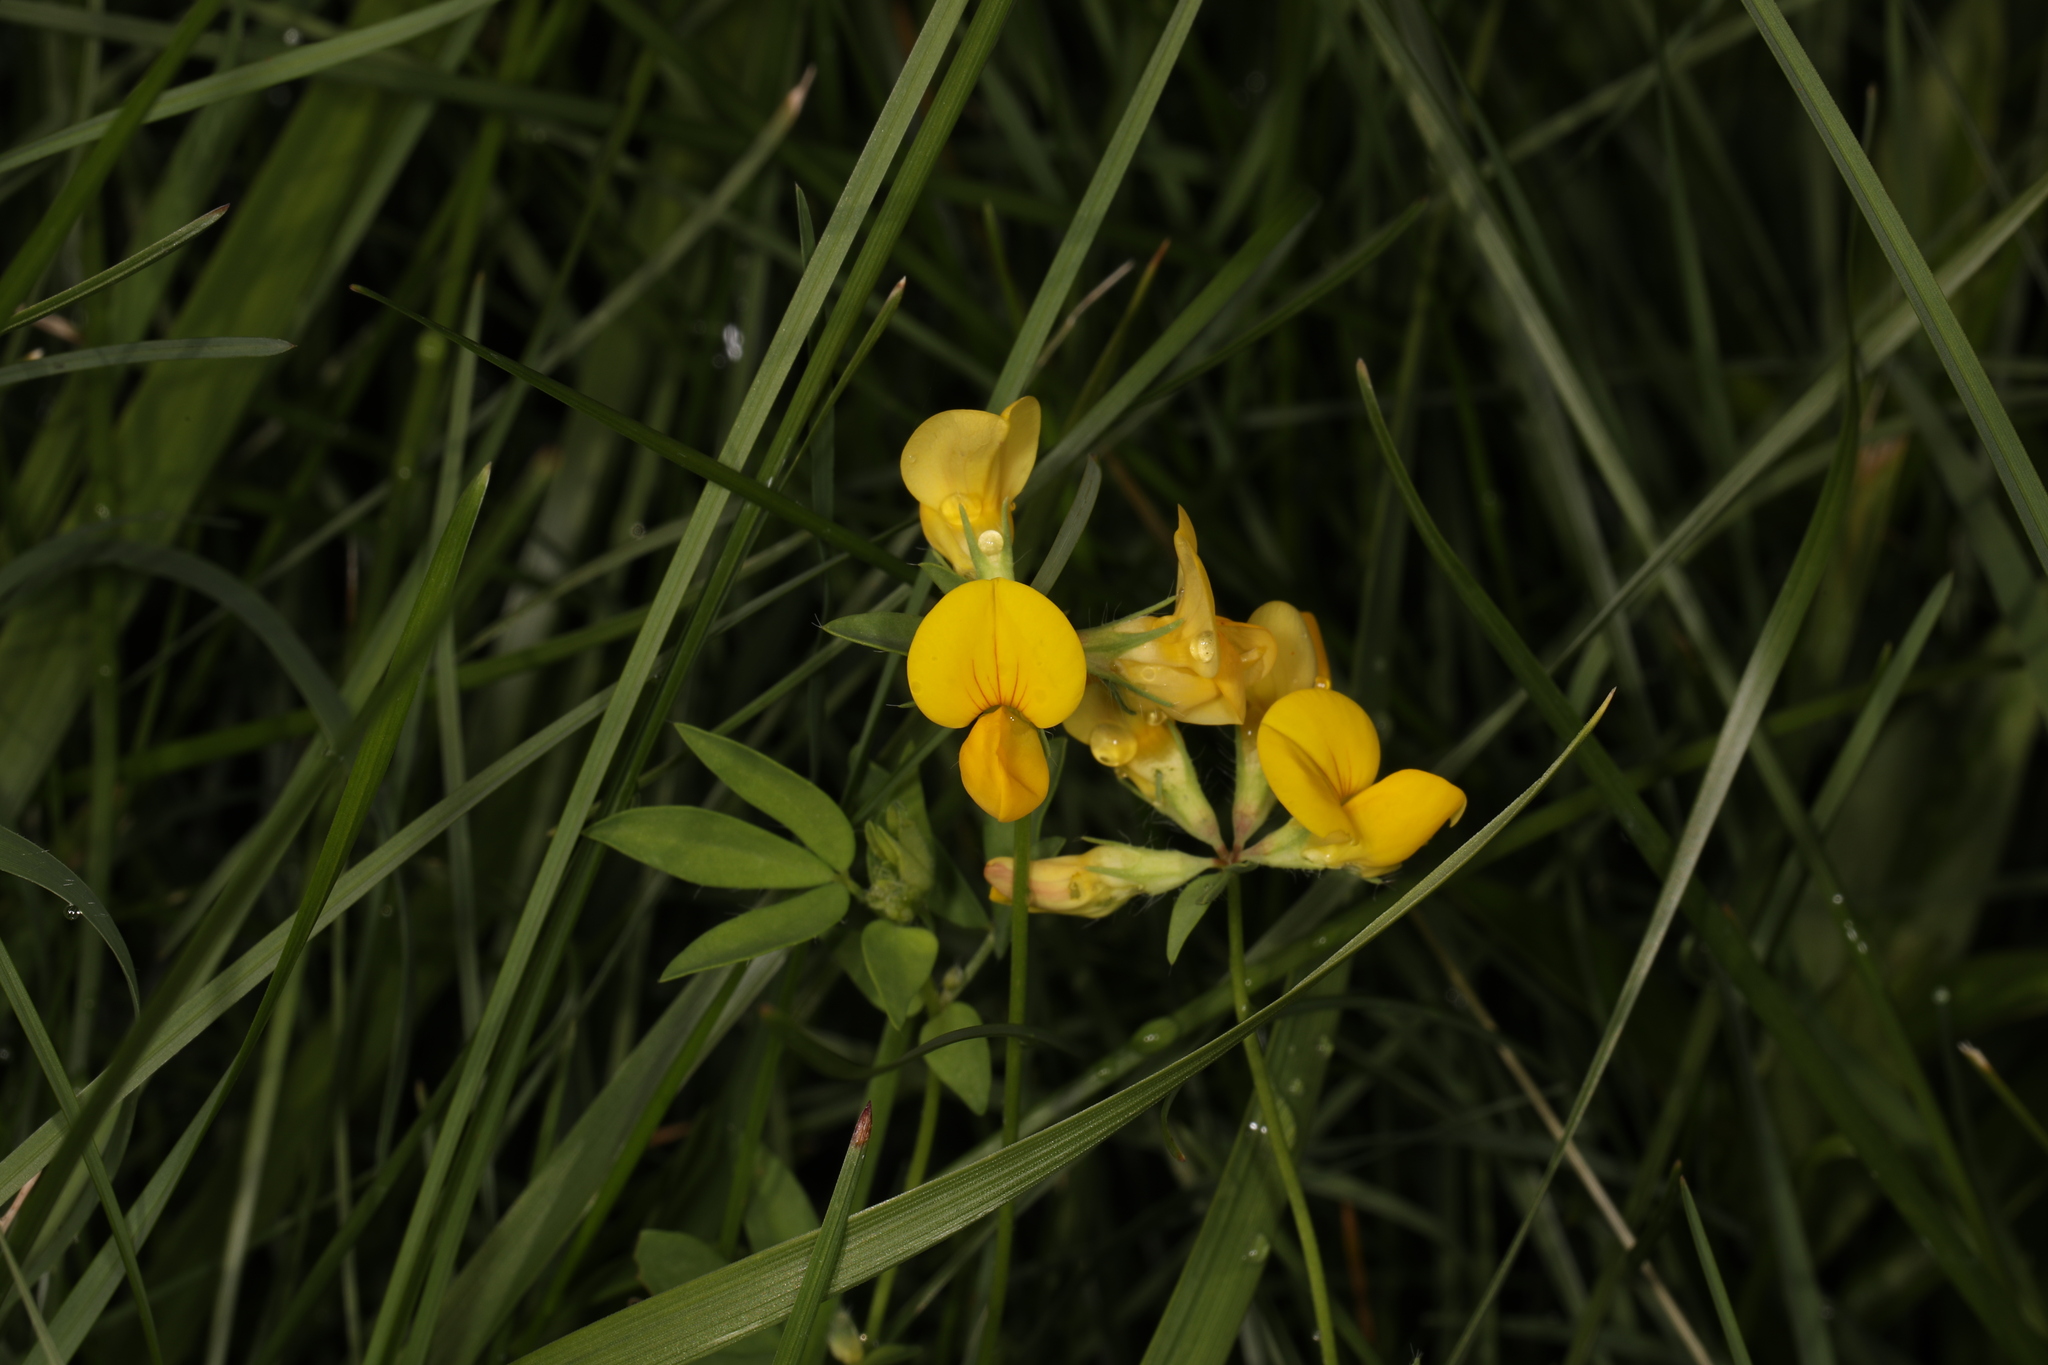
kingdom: Plantae
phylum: Tracheophyta
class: Magnoliopsida
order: Fabales
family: Fabaceae
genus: Lotus
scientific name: Lotus corniculatus
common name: Common bird's-foot-trefoil
